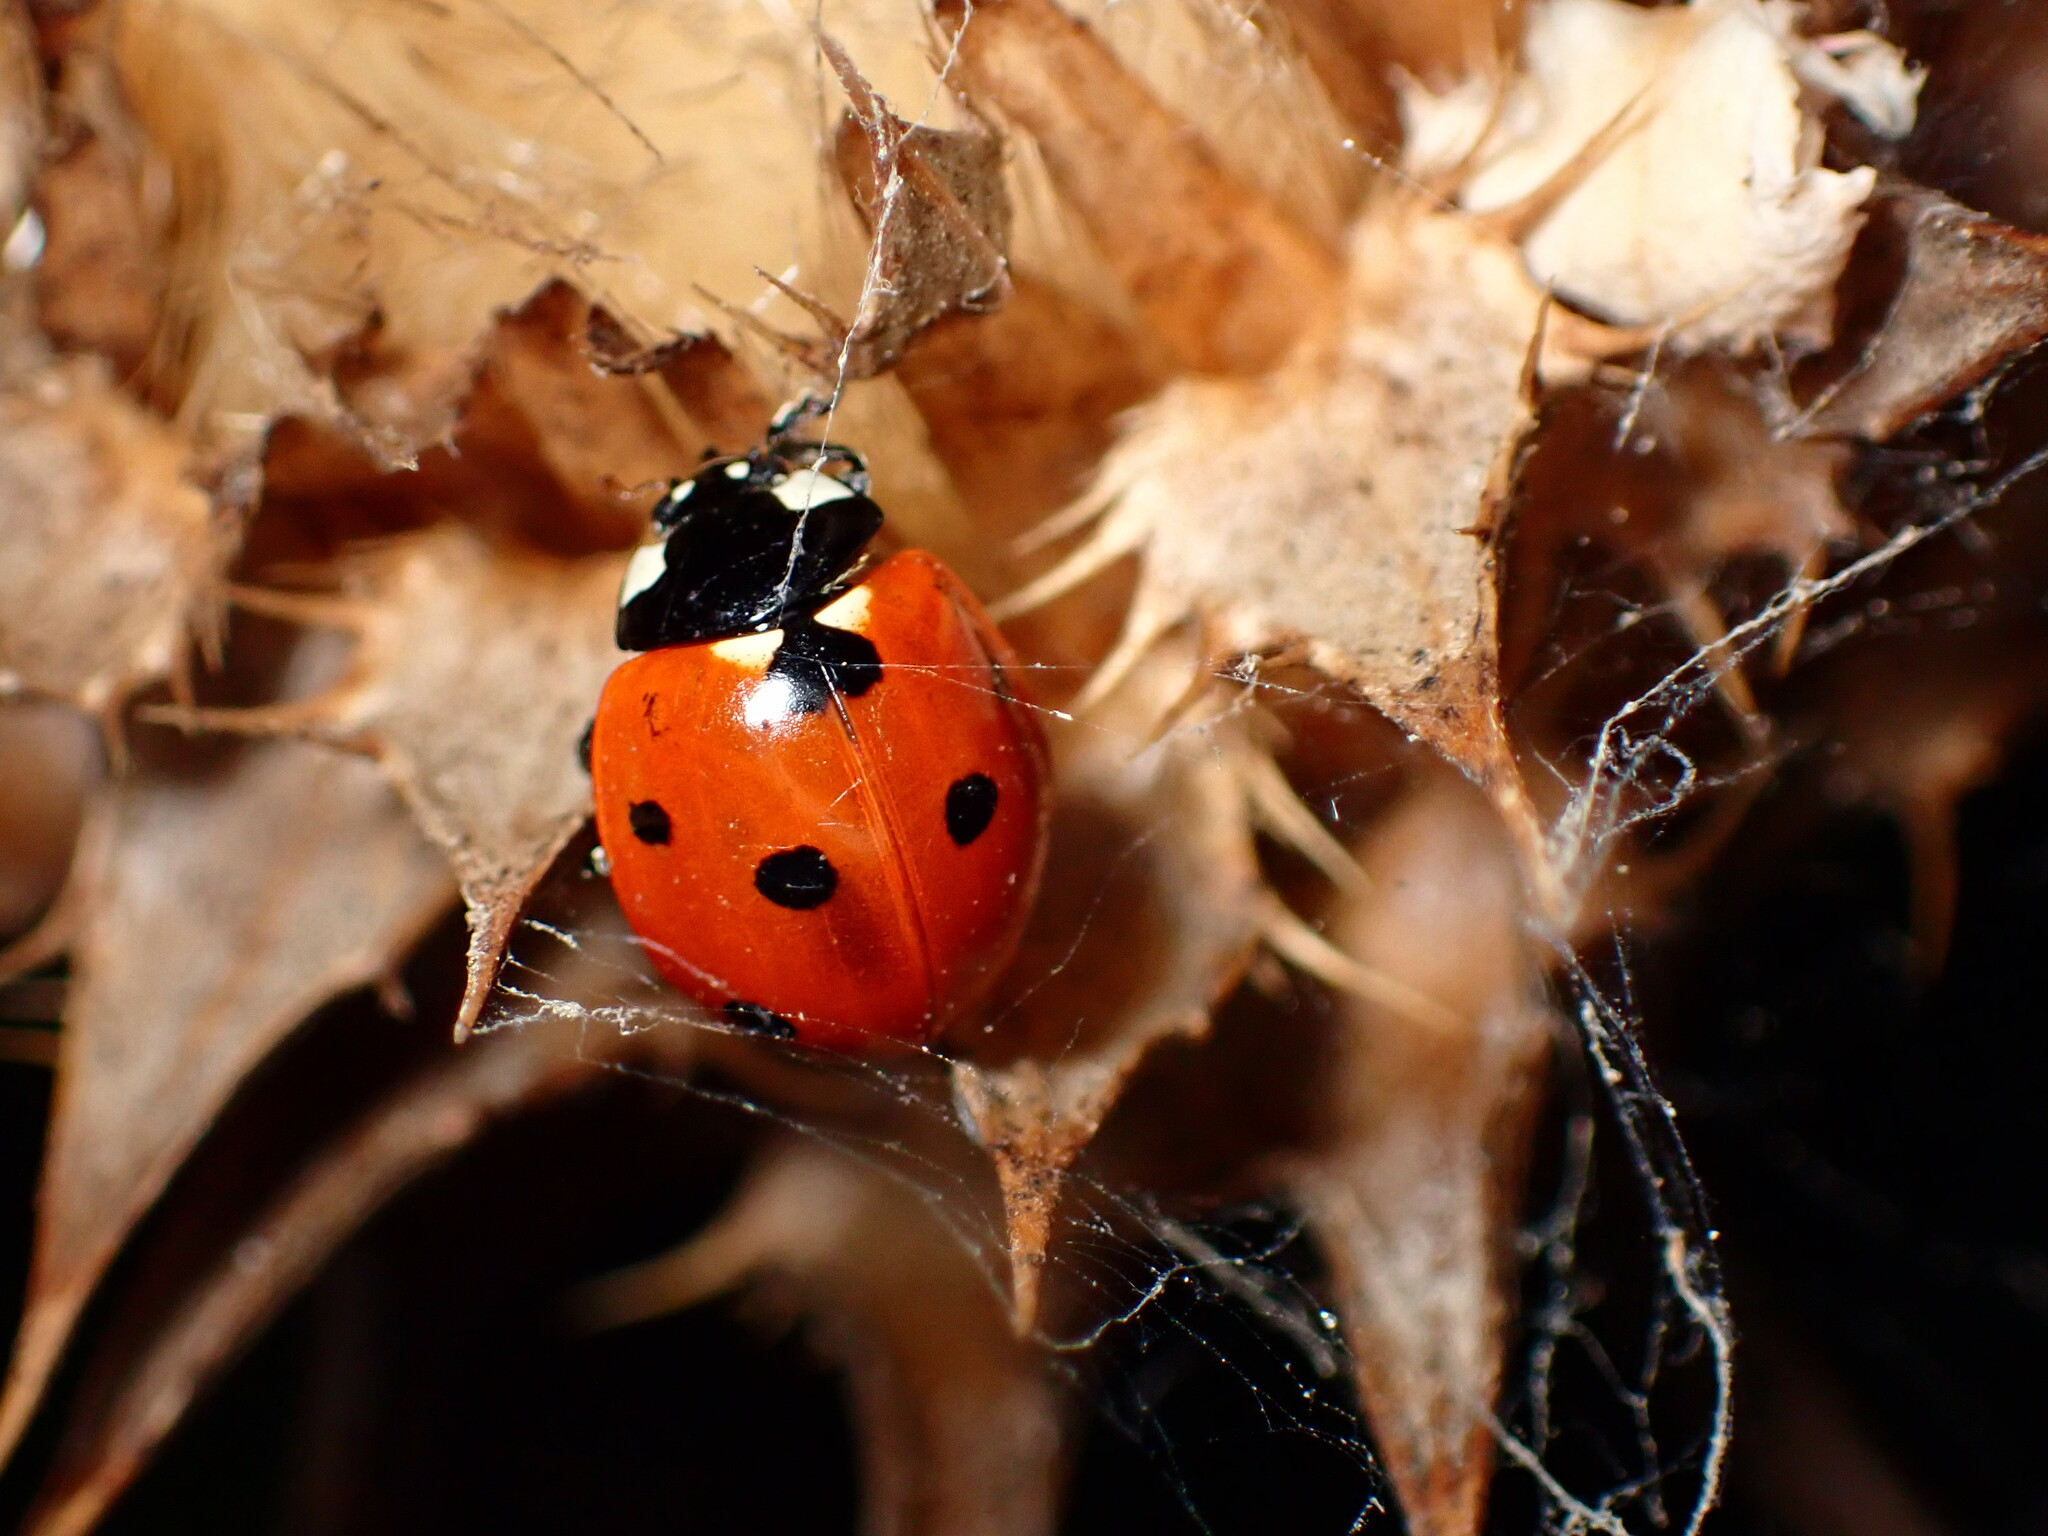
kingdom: Animalia
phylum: Arthropoda
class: Insecta
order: Coleoptera
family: Coccinellidae
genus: Coccinella
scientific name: Coccinella septempunctata
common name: Sevenspotted lady beetle
